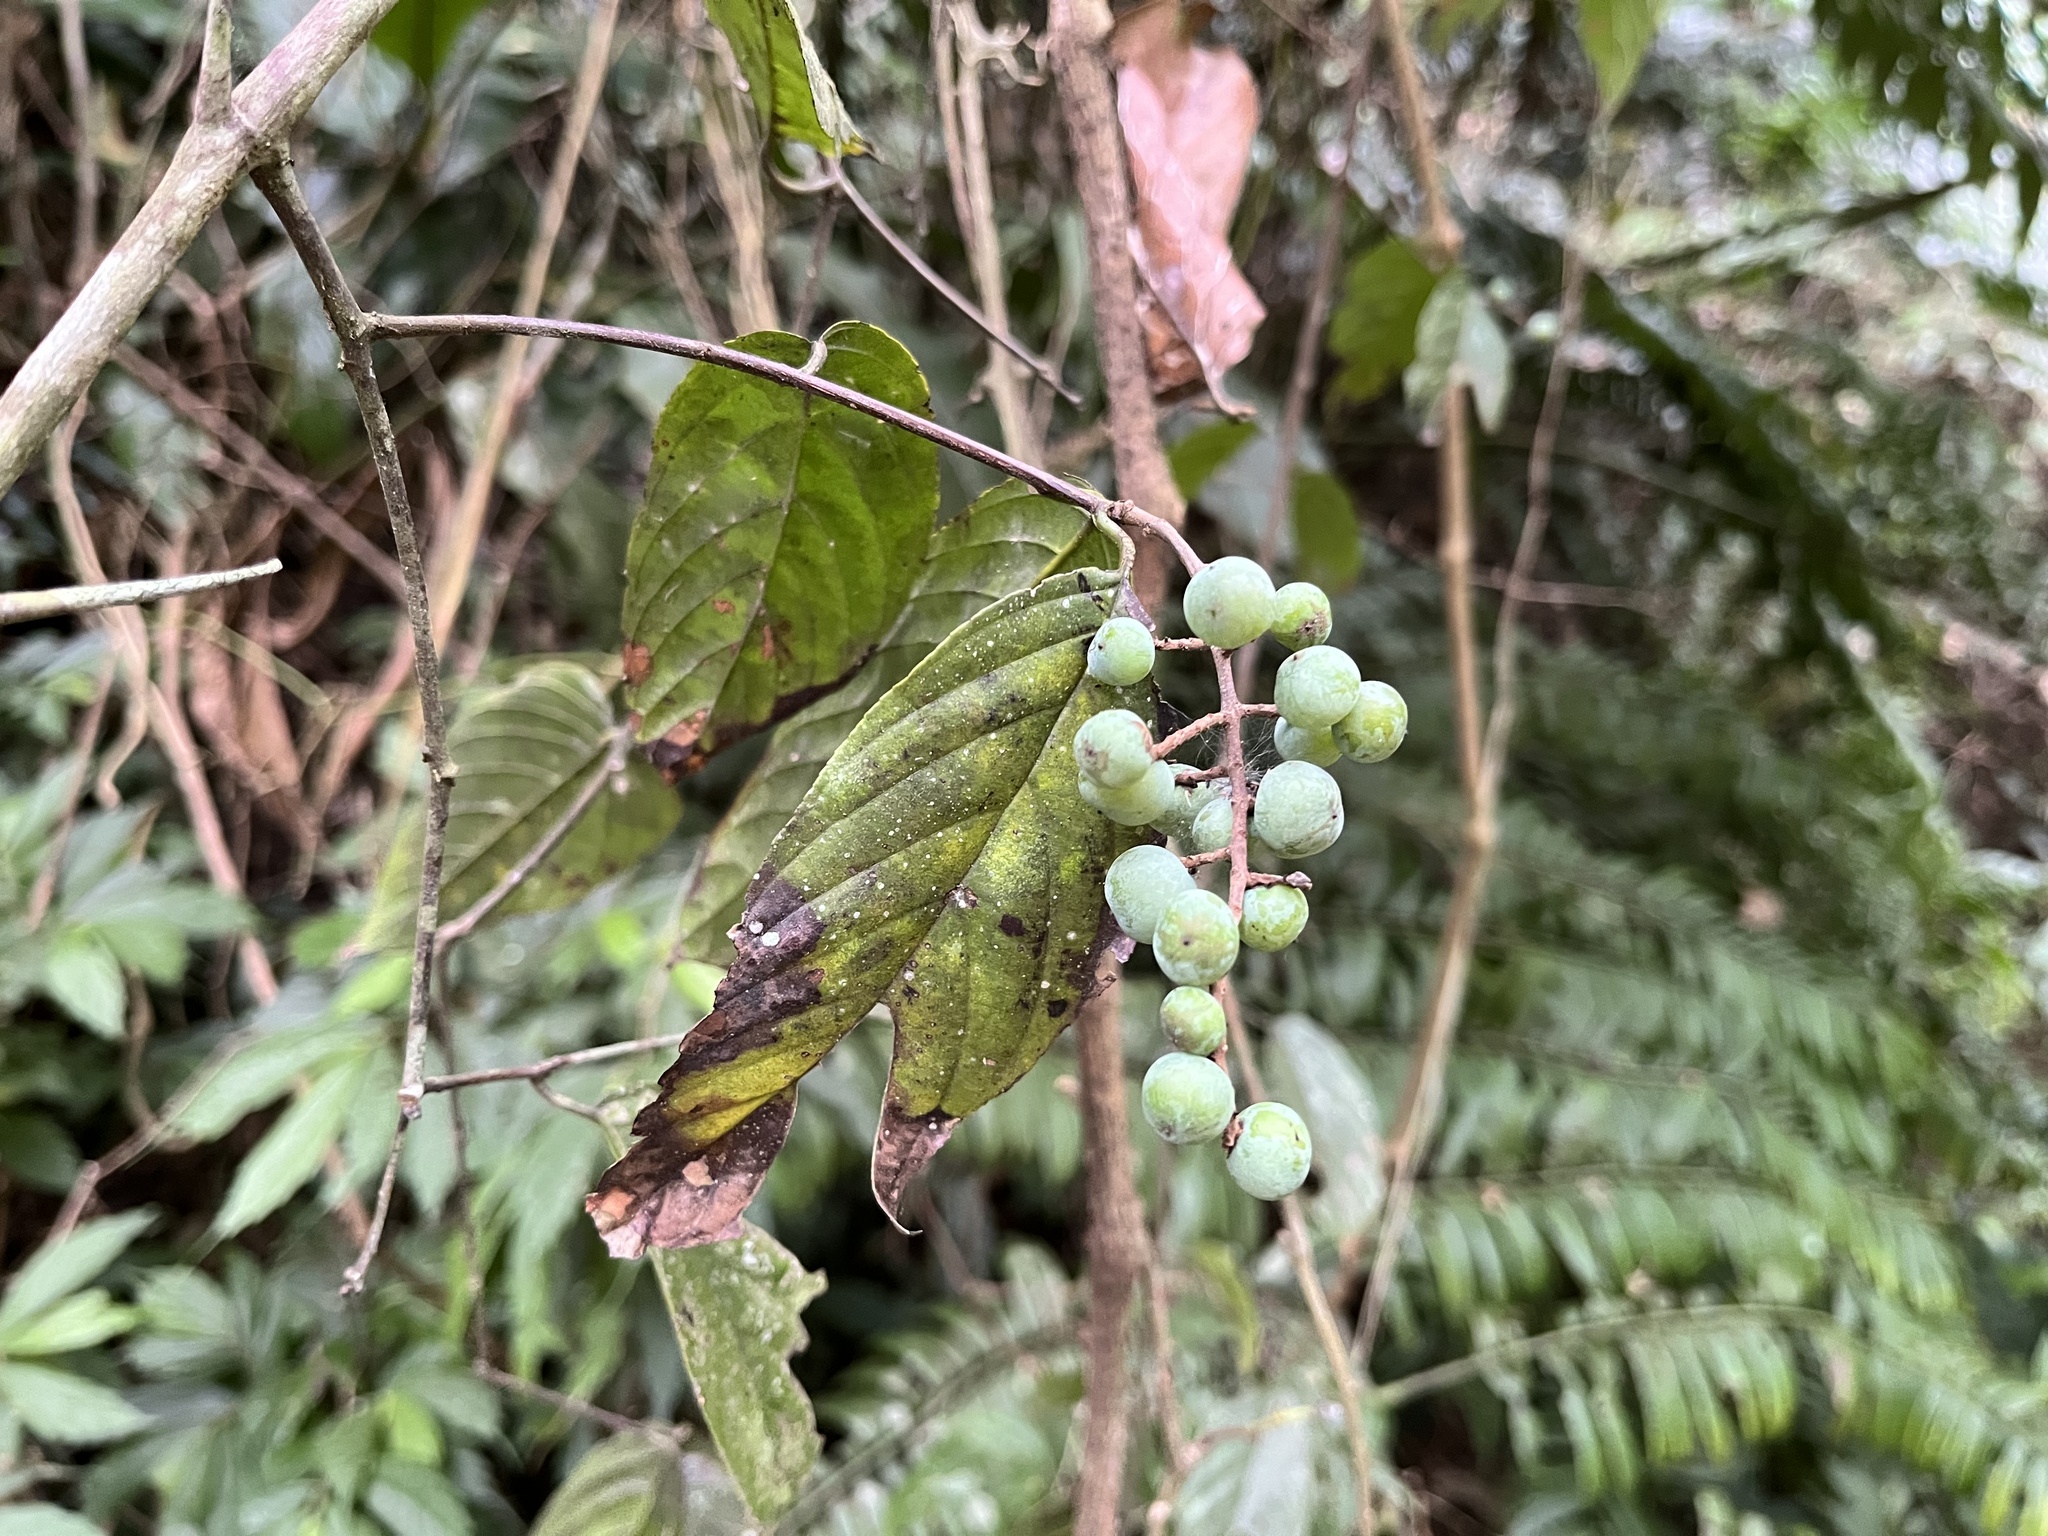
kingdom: Plantae
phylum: Tracheophyta
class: Magnoliopsida
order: Rosales
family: Rhamnaceae
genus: Sageretia
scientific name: Sageretia randaiensis
